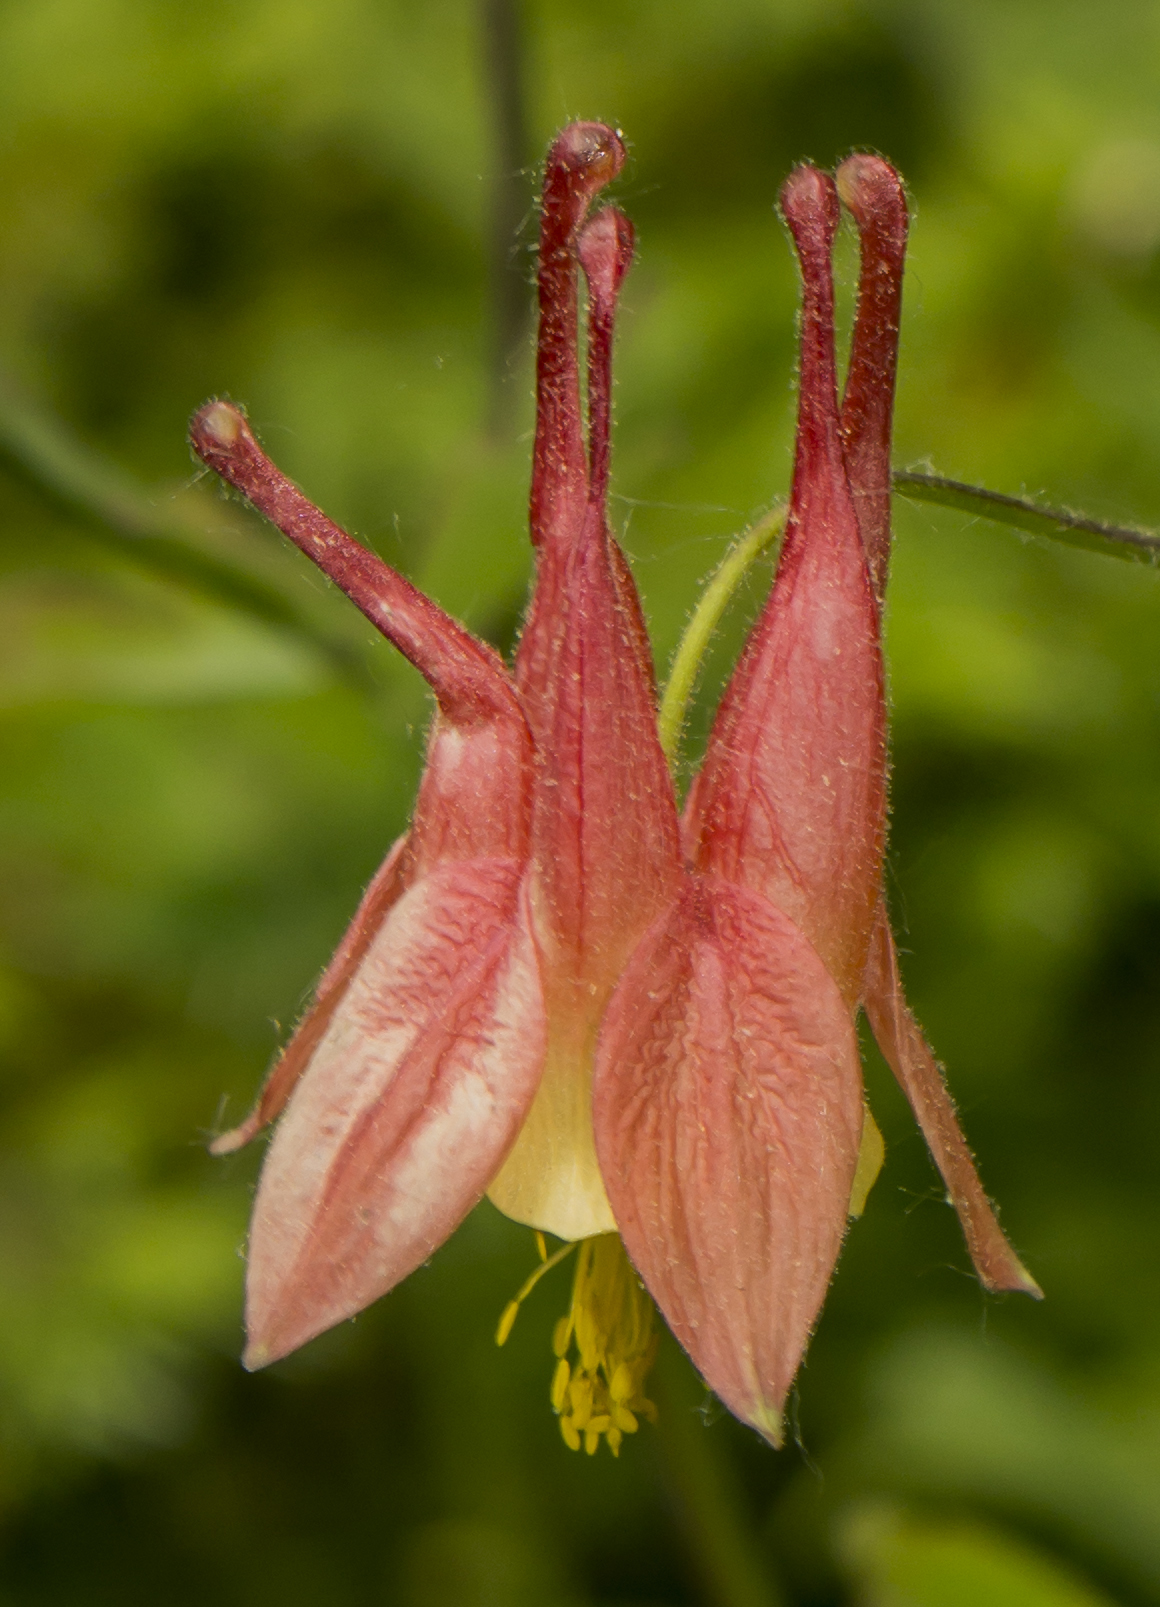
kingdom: Plantae
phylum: Tracheophyta
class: Magnoliopsida
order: Ranunculales
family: Ranunculaceae
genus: Aquilegia
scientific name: Aquilegia canadensis
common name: American columbine
